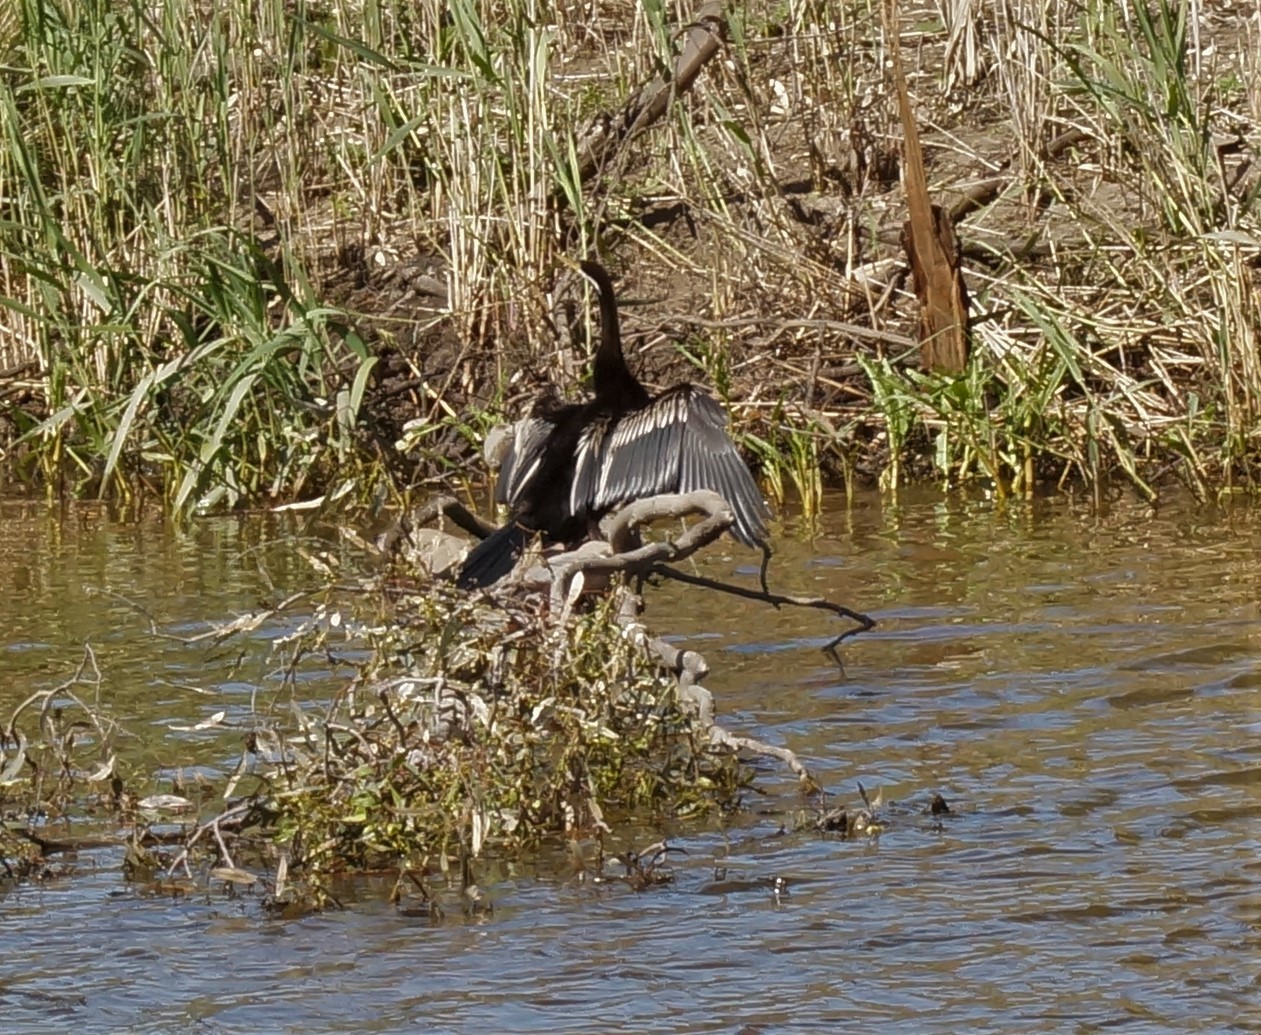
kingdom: Animalia
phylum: Chordata
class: Aves
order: Suliformes
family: Anhingidae
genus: Anhinga
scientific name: Anhinga novaehollandiae
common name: Australasian darter
